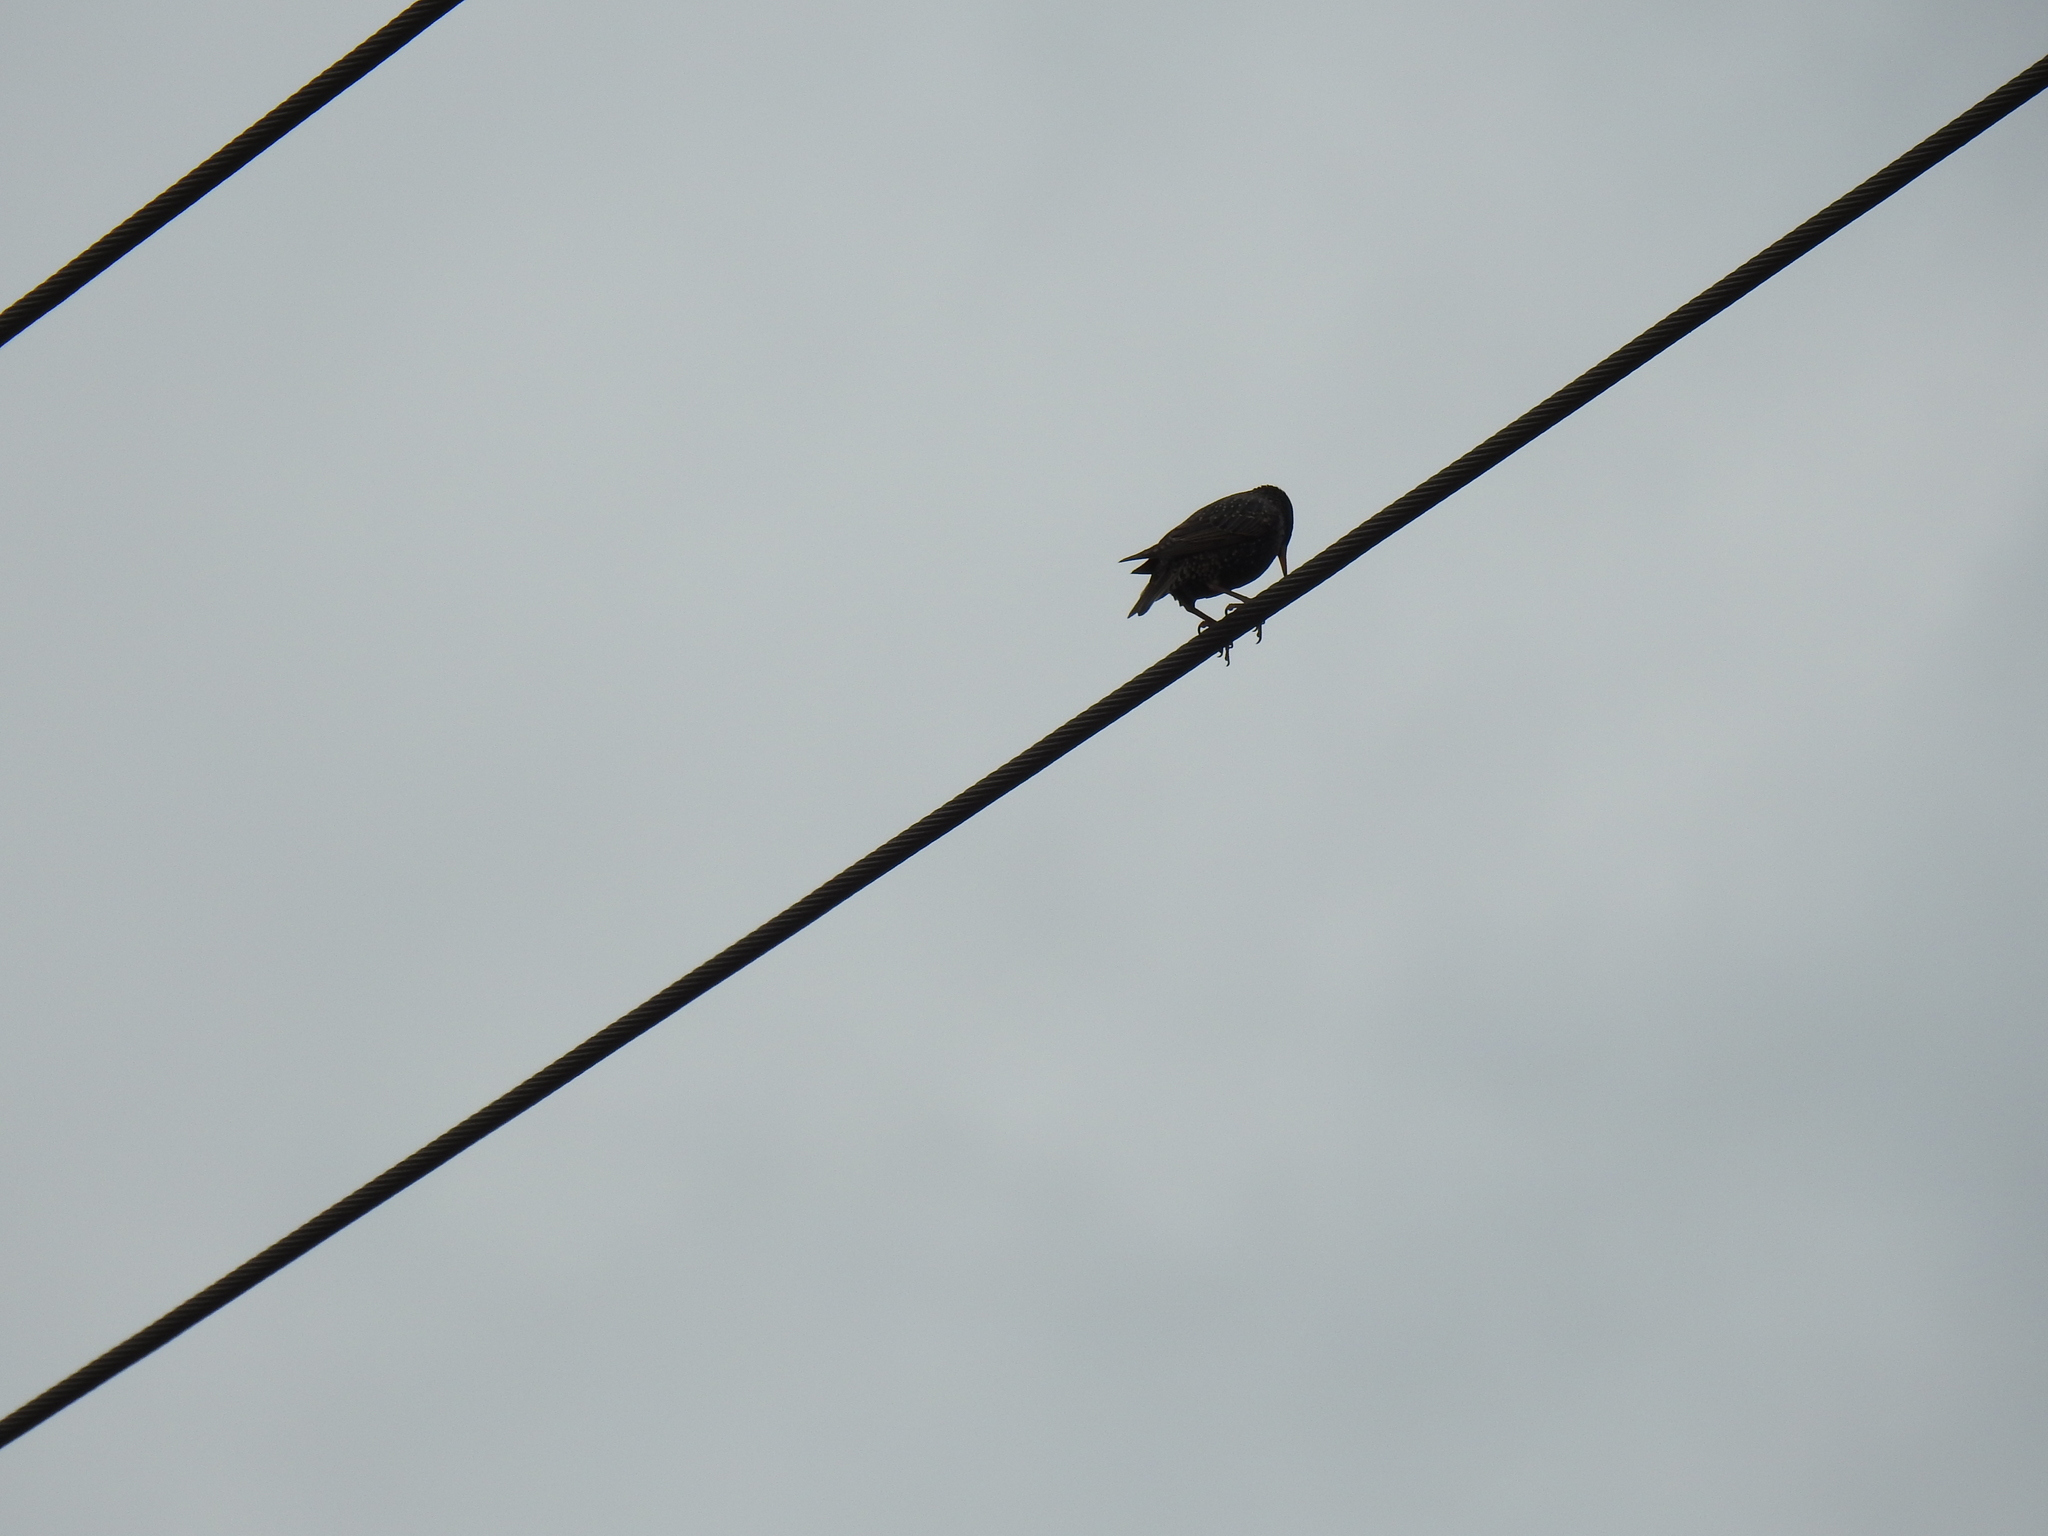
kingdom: Animalia
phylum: Chordata
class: Aves
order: Passeriformes
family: Sturnidae
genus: Sturnus
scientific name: Sturnus vulgaris
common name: Common starling
